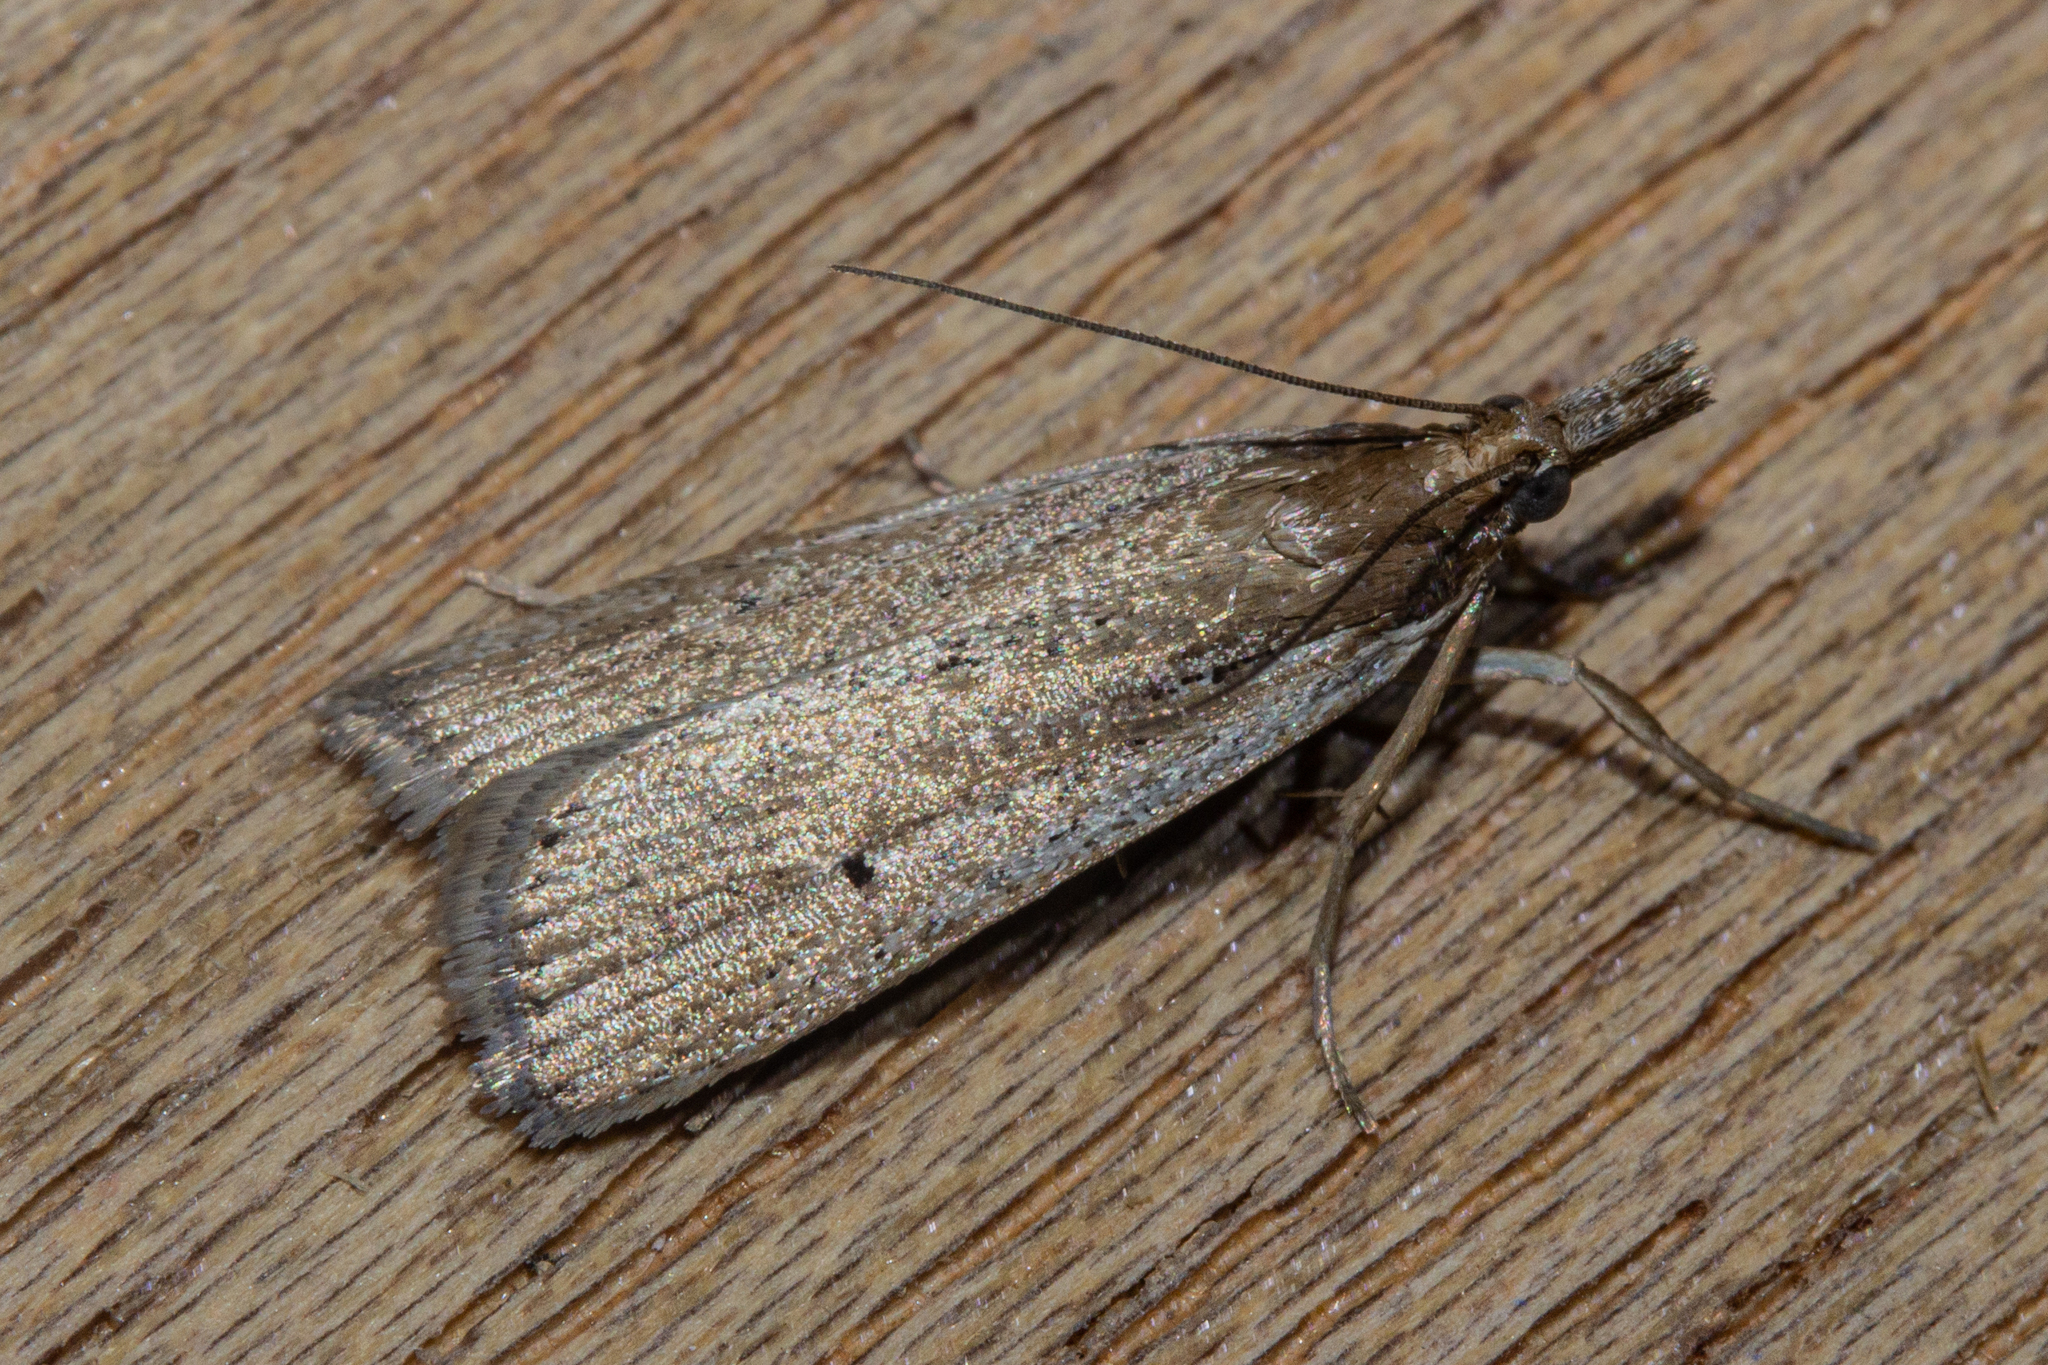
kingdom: Animalia
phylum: Arthropoda
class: Insecta
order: Lepidoptera
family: Crambidae
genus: Eudonia
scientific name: Eudonia sabulosella
